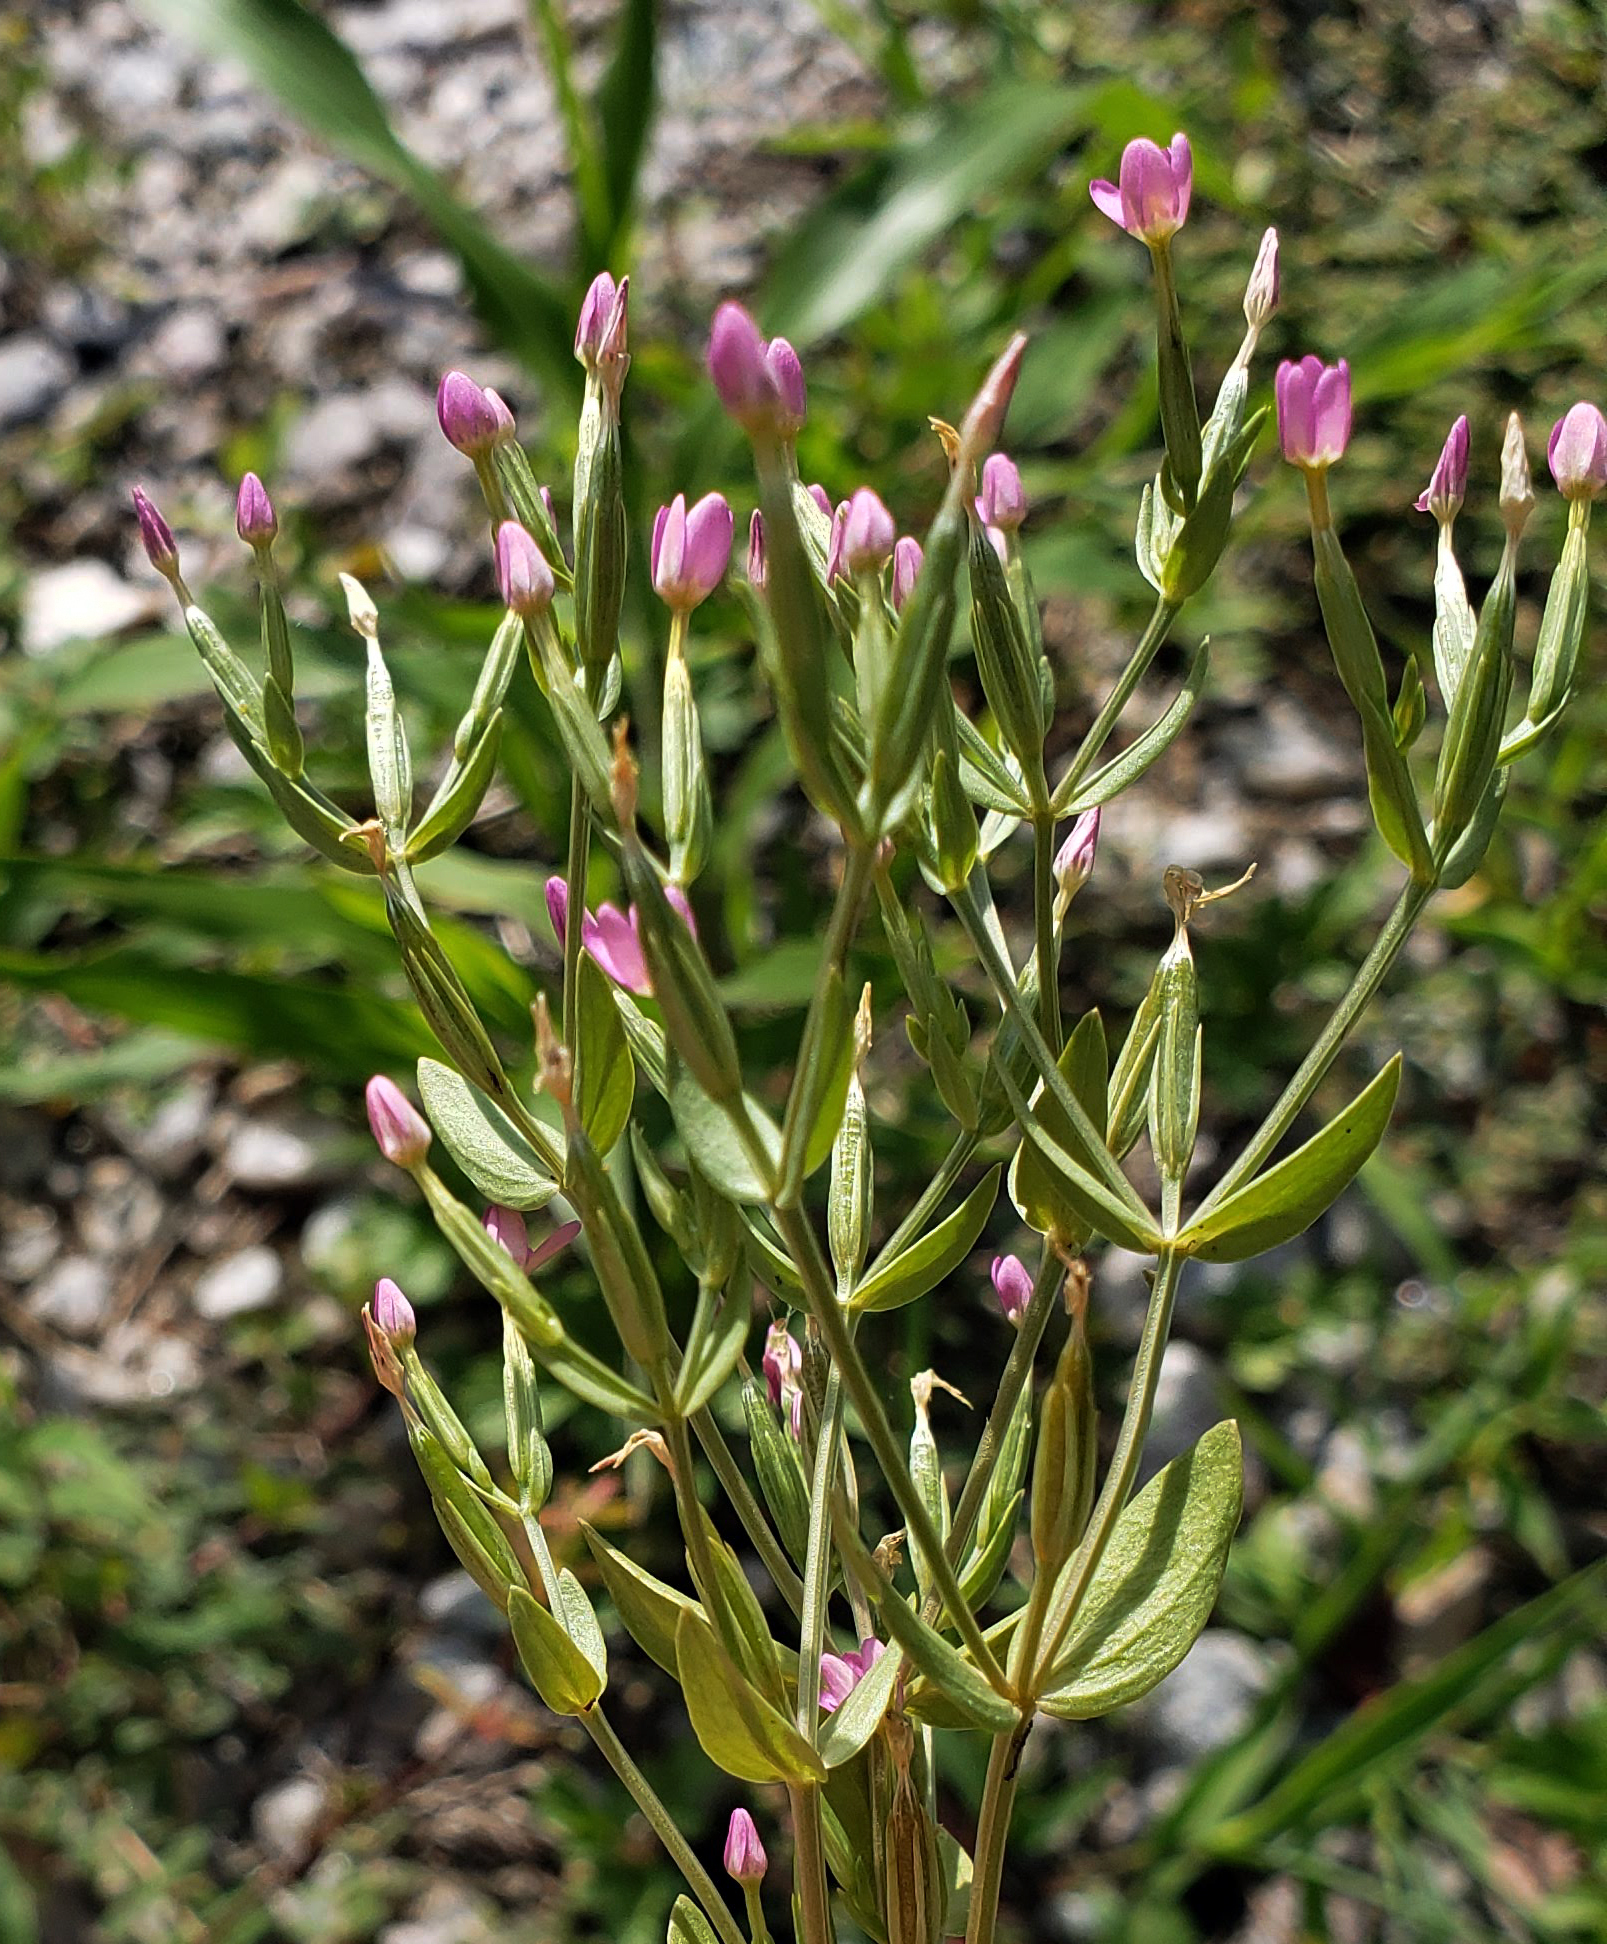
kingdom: Plantae
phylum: Tracheophyta
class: Magnoliopsida
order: Gentianales
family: Gentianaceae
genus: Centaurium
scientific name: Centaurium pulchellum
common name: Lesser centaury
